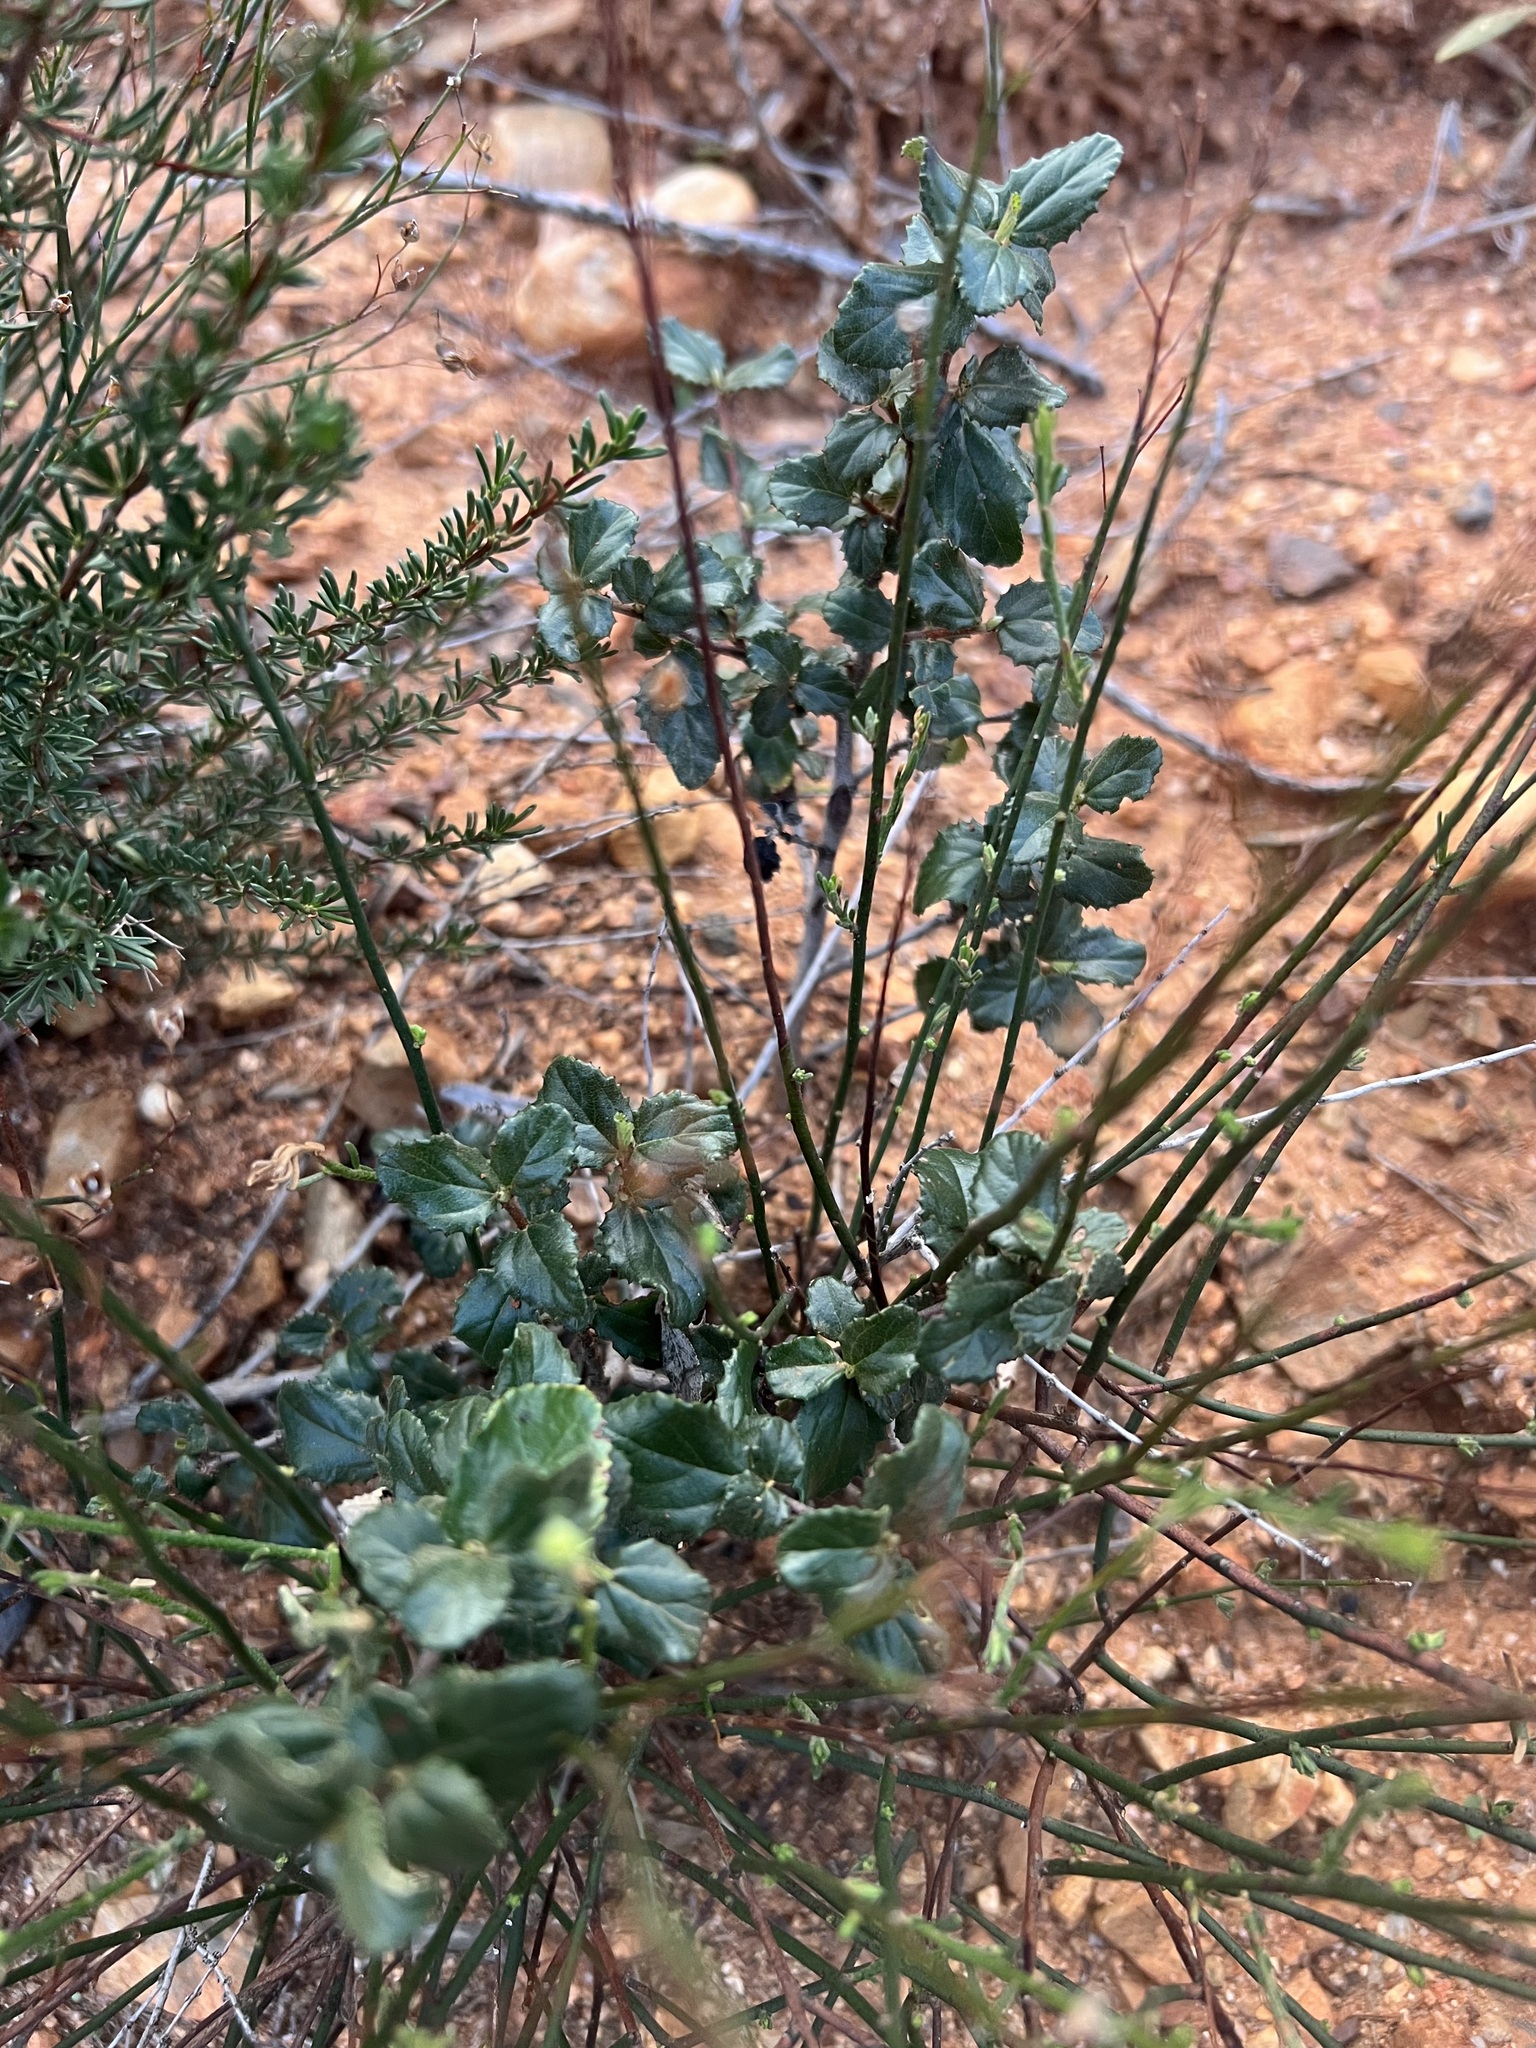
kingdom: Plantae
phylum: Tracheophyta
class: Magnoliopsida
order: Rosales
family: Rhamnaceae
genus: Ceanothus
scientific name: Ceanothus tomentosus
